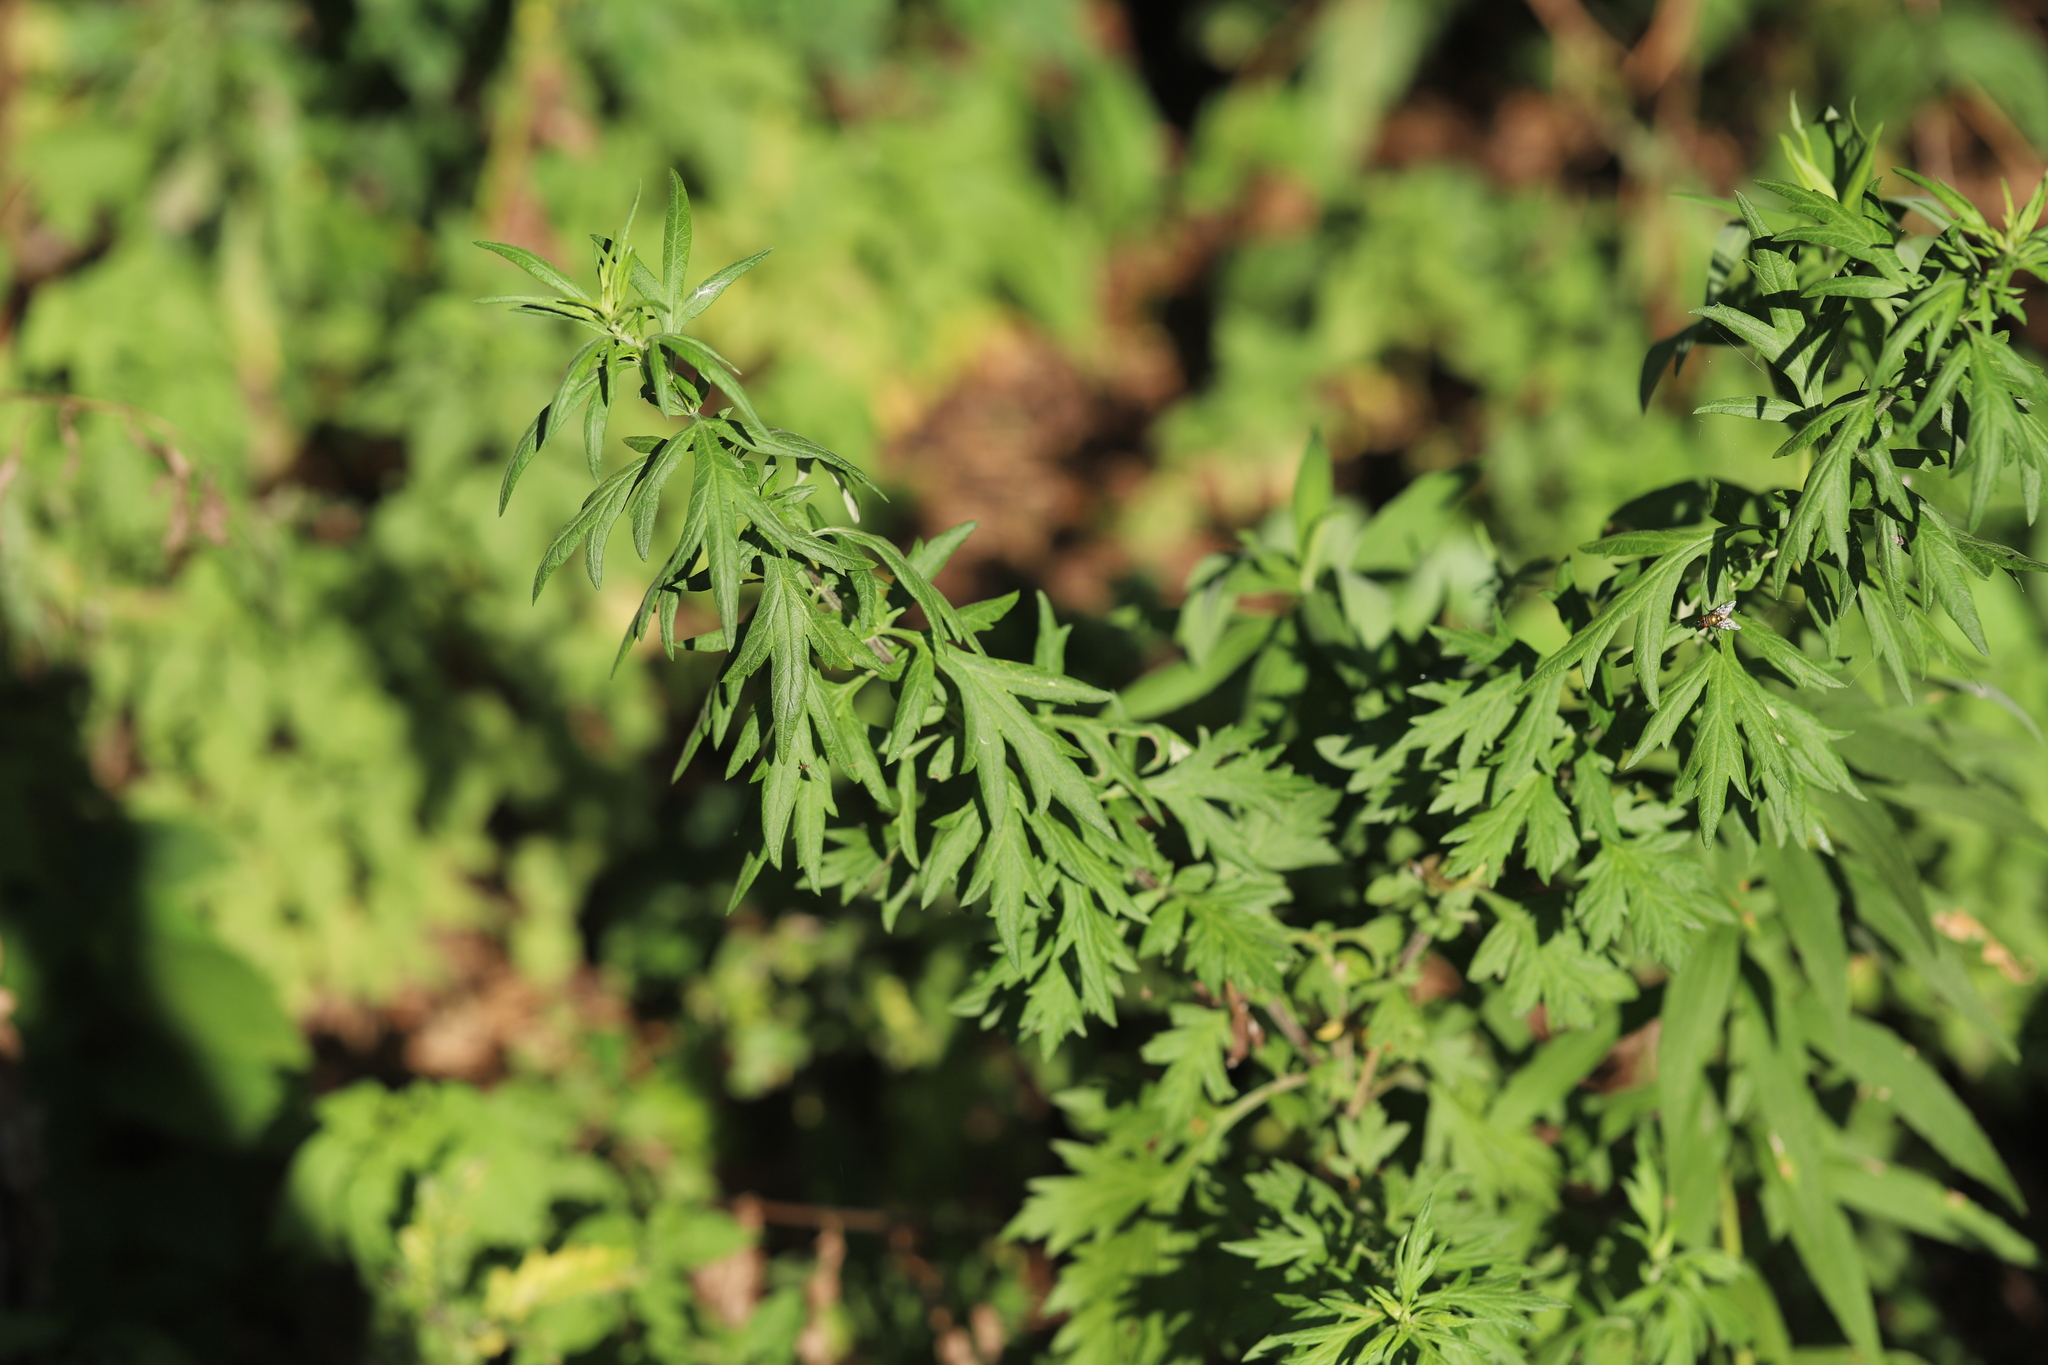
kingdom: Plantae
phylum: Tracheophyta
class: Magnoliopsida
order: Asterales
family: Asteraceae
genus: Artemisia
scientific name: Artemisia vulgaris
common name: Mugwort
